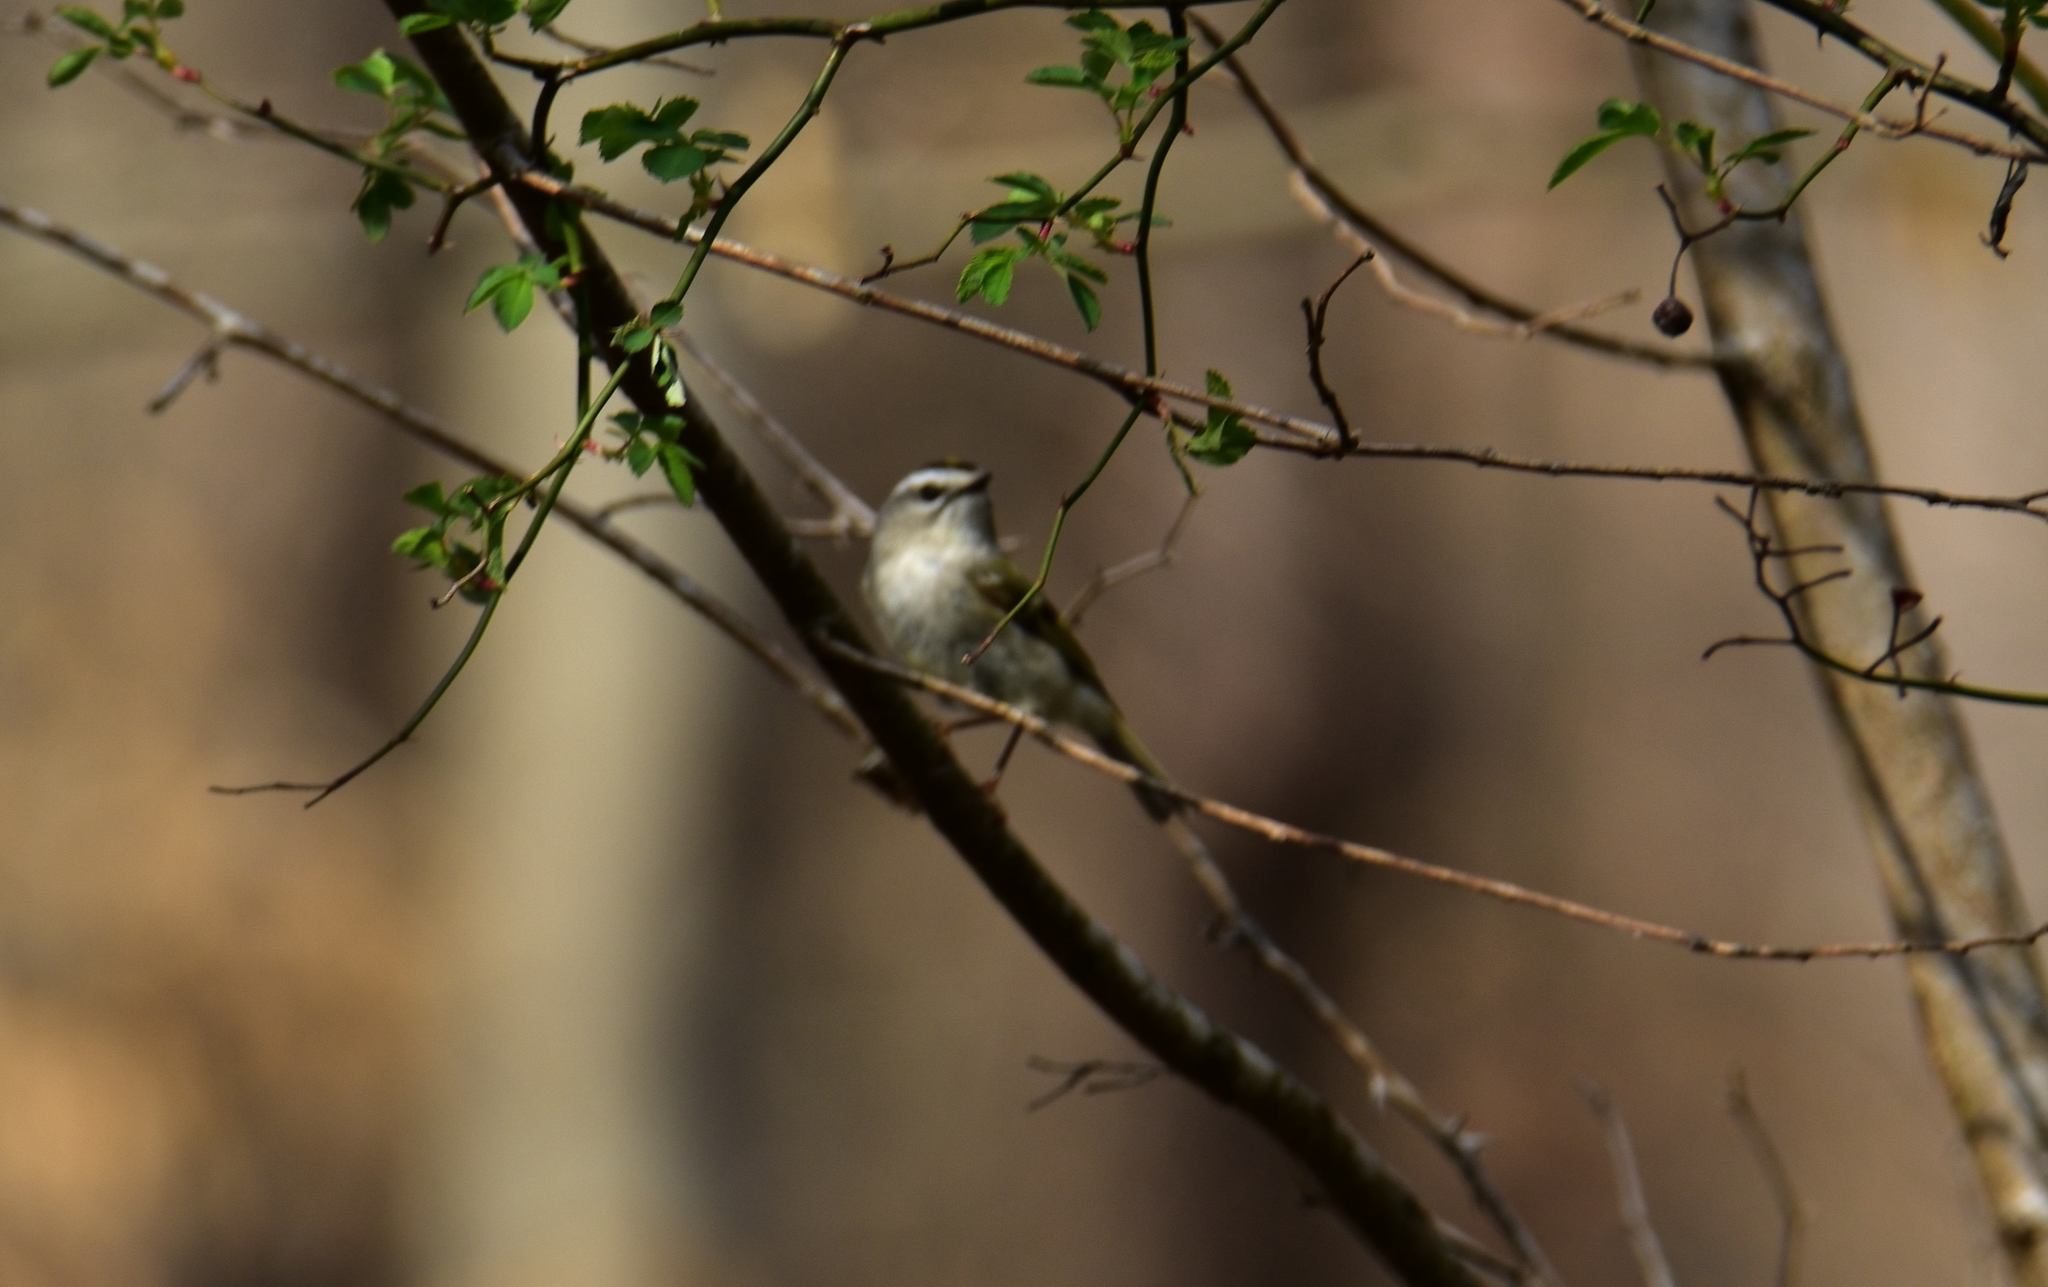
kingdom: Animalia
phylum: Chordata
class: Aves
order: Passeriformes
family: Regulidae
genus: Regulus
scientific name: Regulus satrapa
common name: Golden-crowned kinglet
